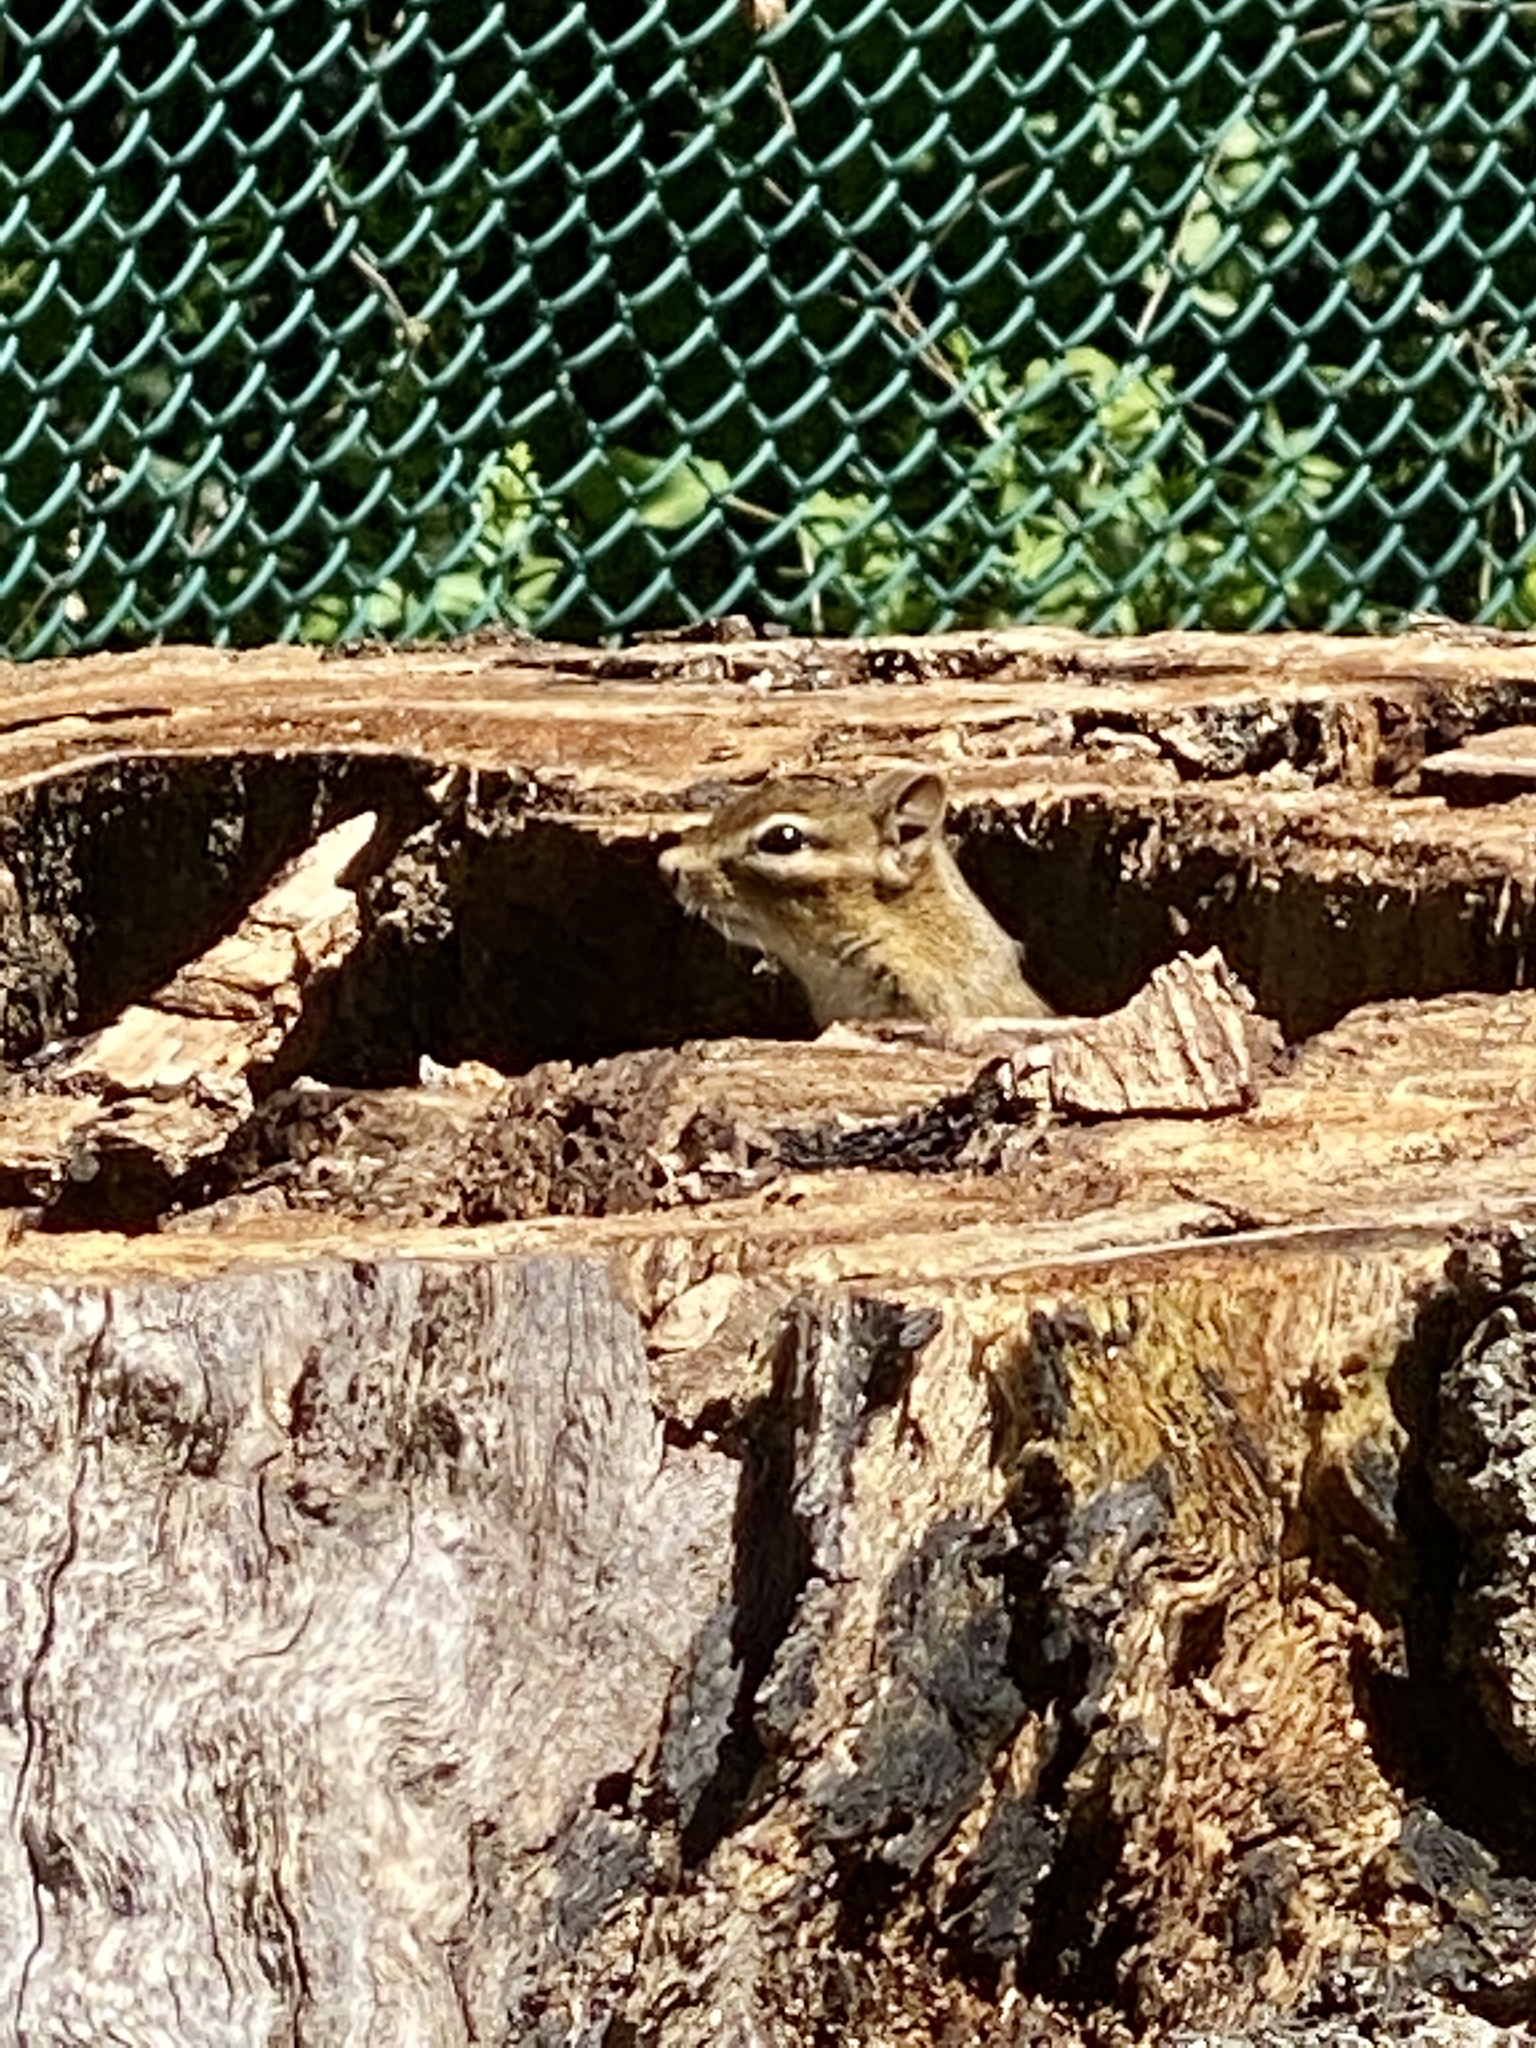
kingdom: Animalia
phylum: Chordata
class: Mammalia
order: Rodentia
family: Sciuridae
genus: Tamias
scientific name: Tamias striatus
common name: Eastern chipmunk
